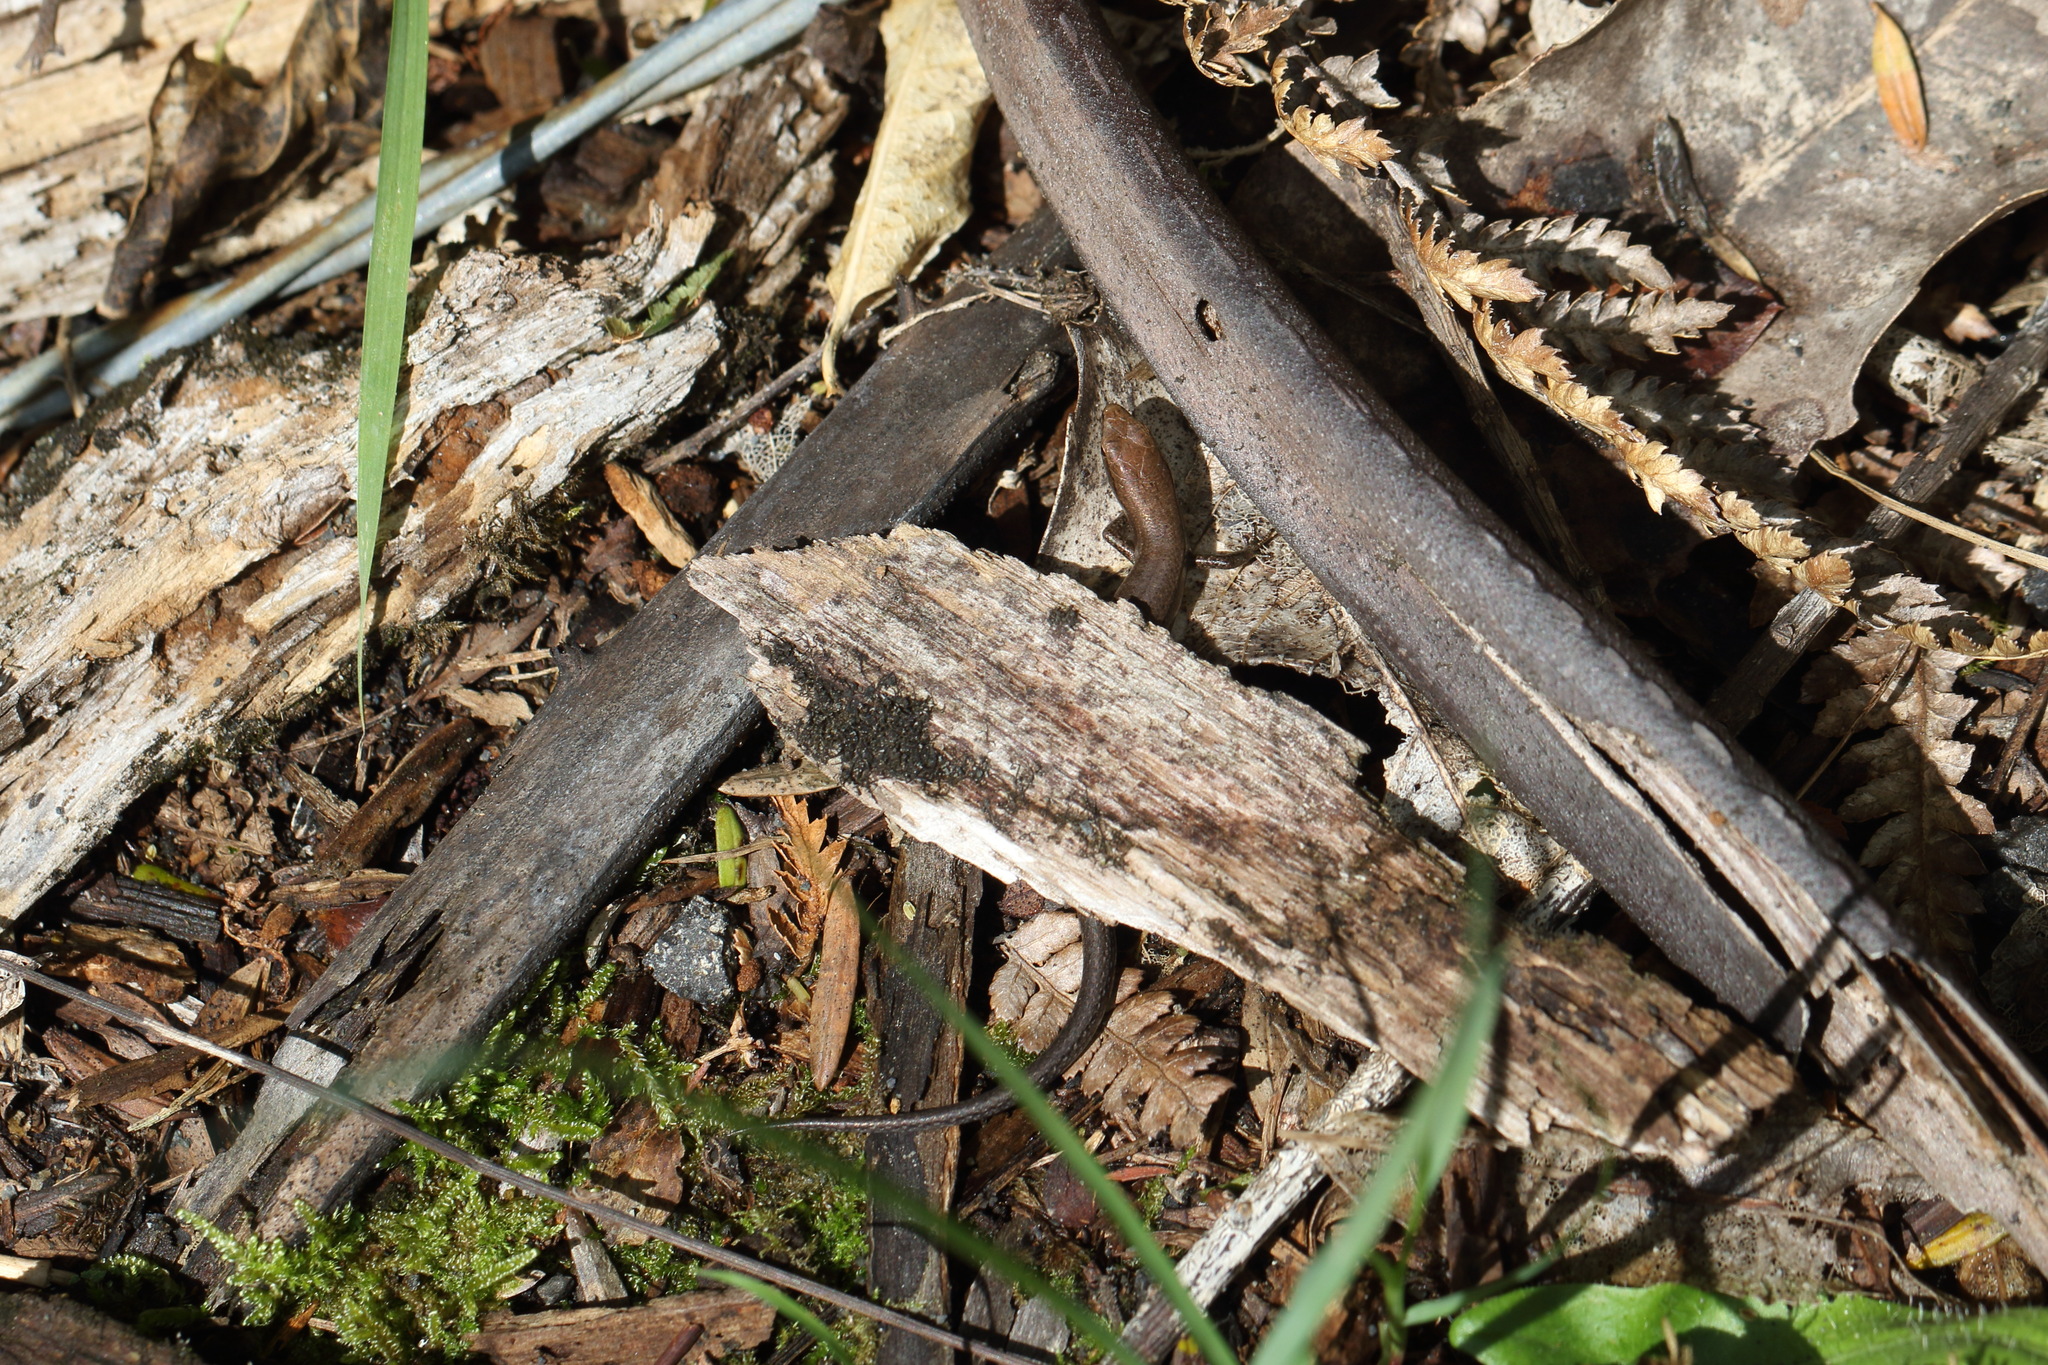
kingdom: Animalia
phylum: Chordata
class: Squamata
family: Scincidae
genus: Lampropholis
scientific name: Lampropholis delicata
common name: Plague skink
